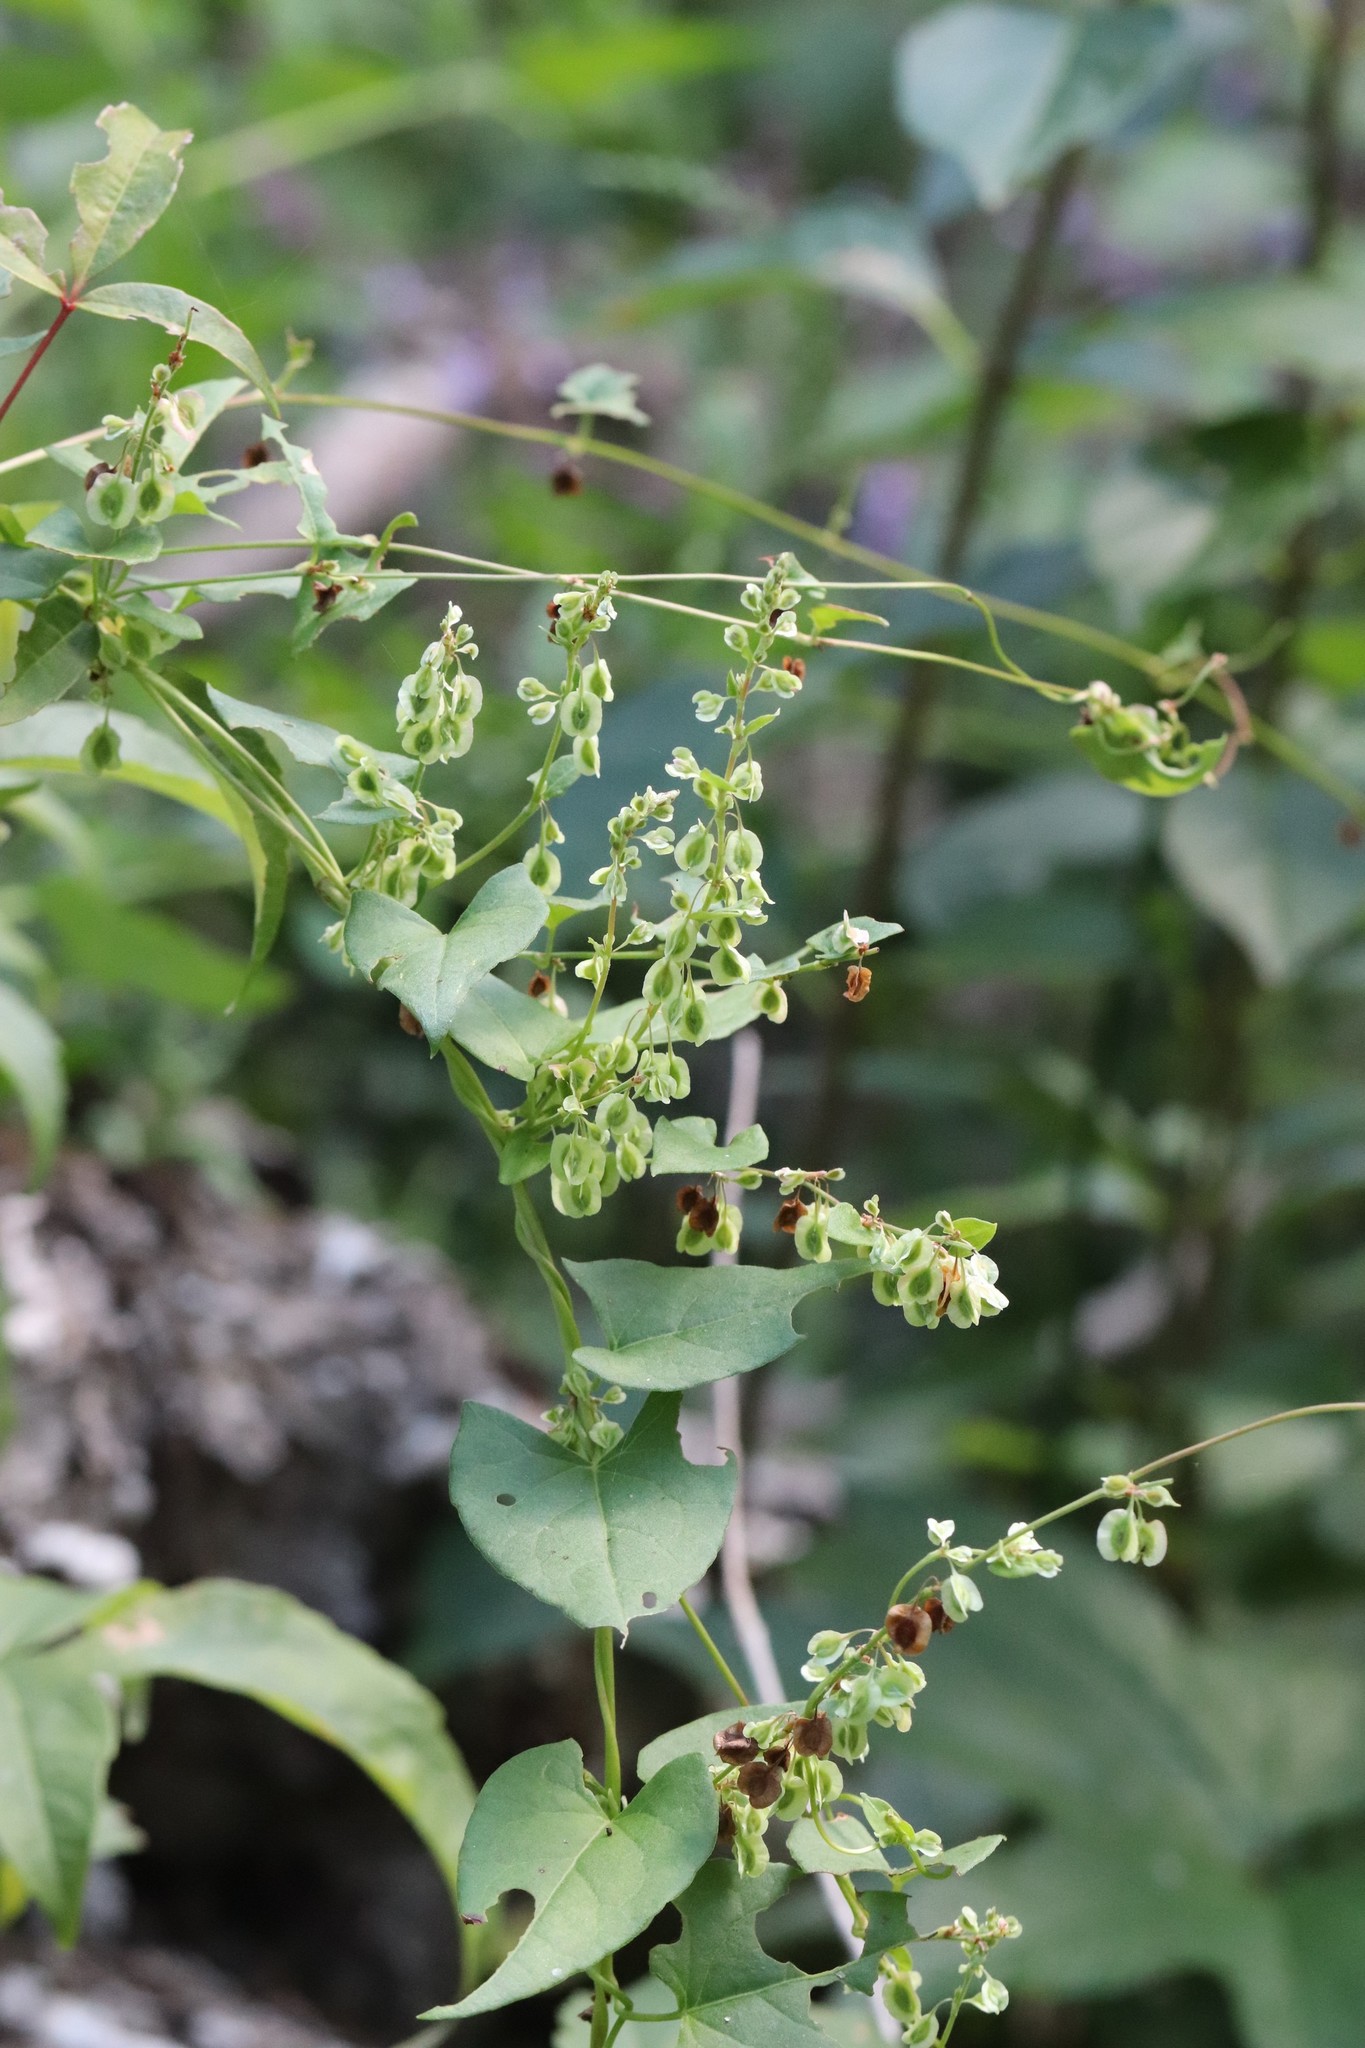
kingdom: Plantae
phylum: Tracheophyta
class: Magnoliopsida
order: Caryophyllales
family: Polygonaceae
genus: Fallopia
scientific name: Fallopia dumetorum
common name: Copse-bindweed
